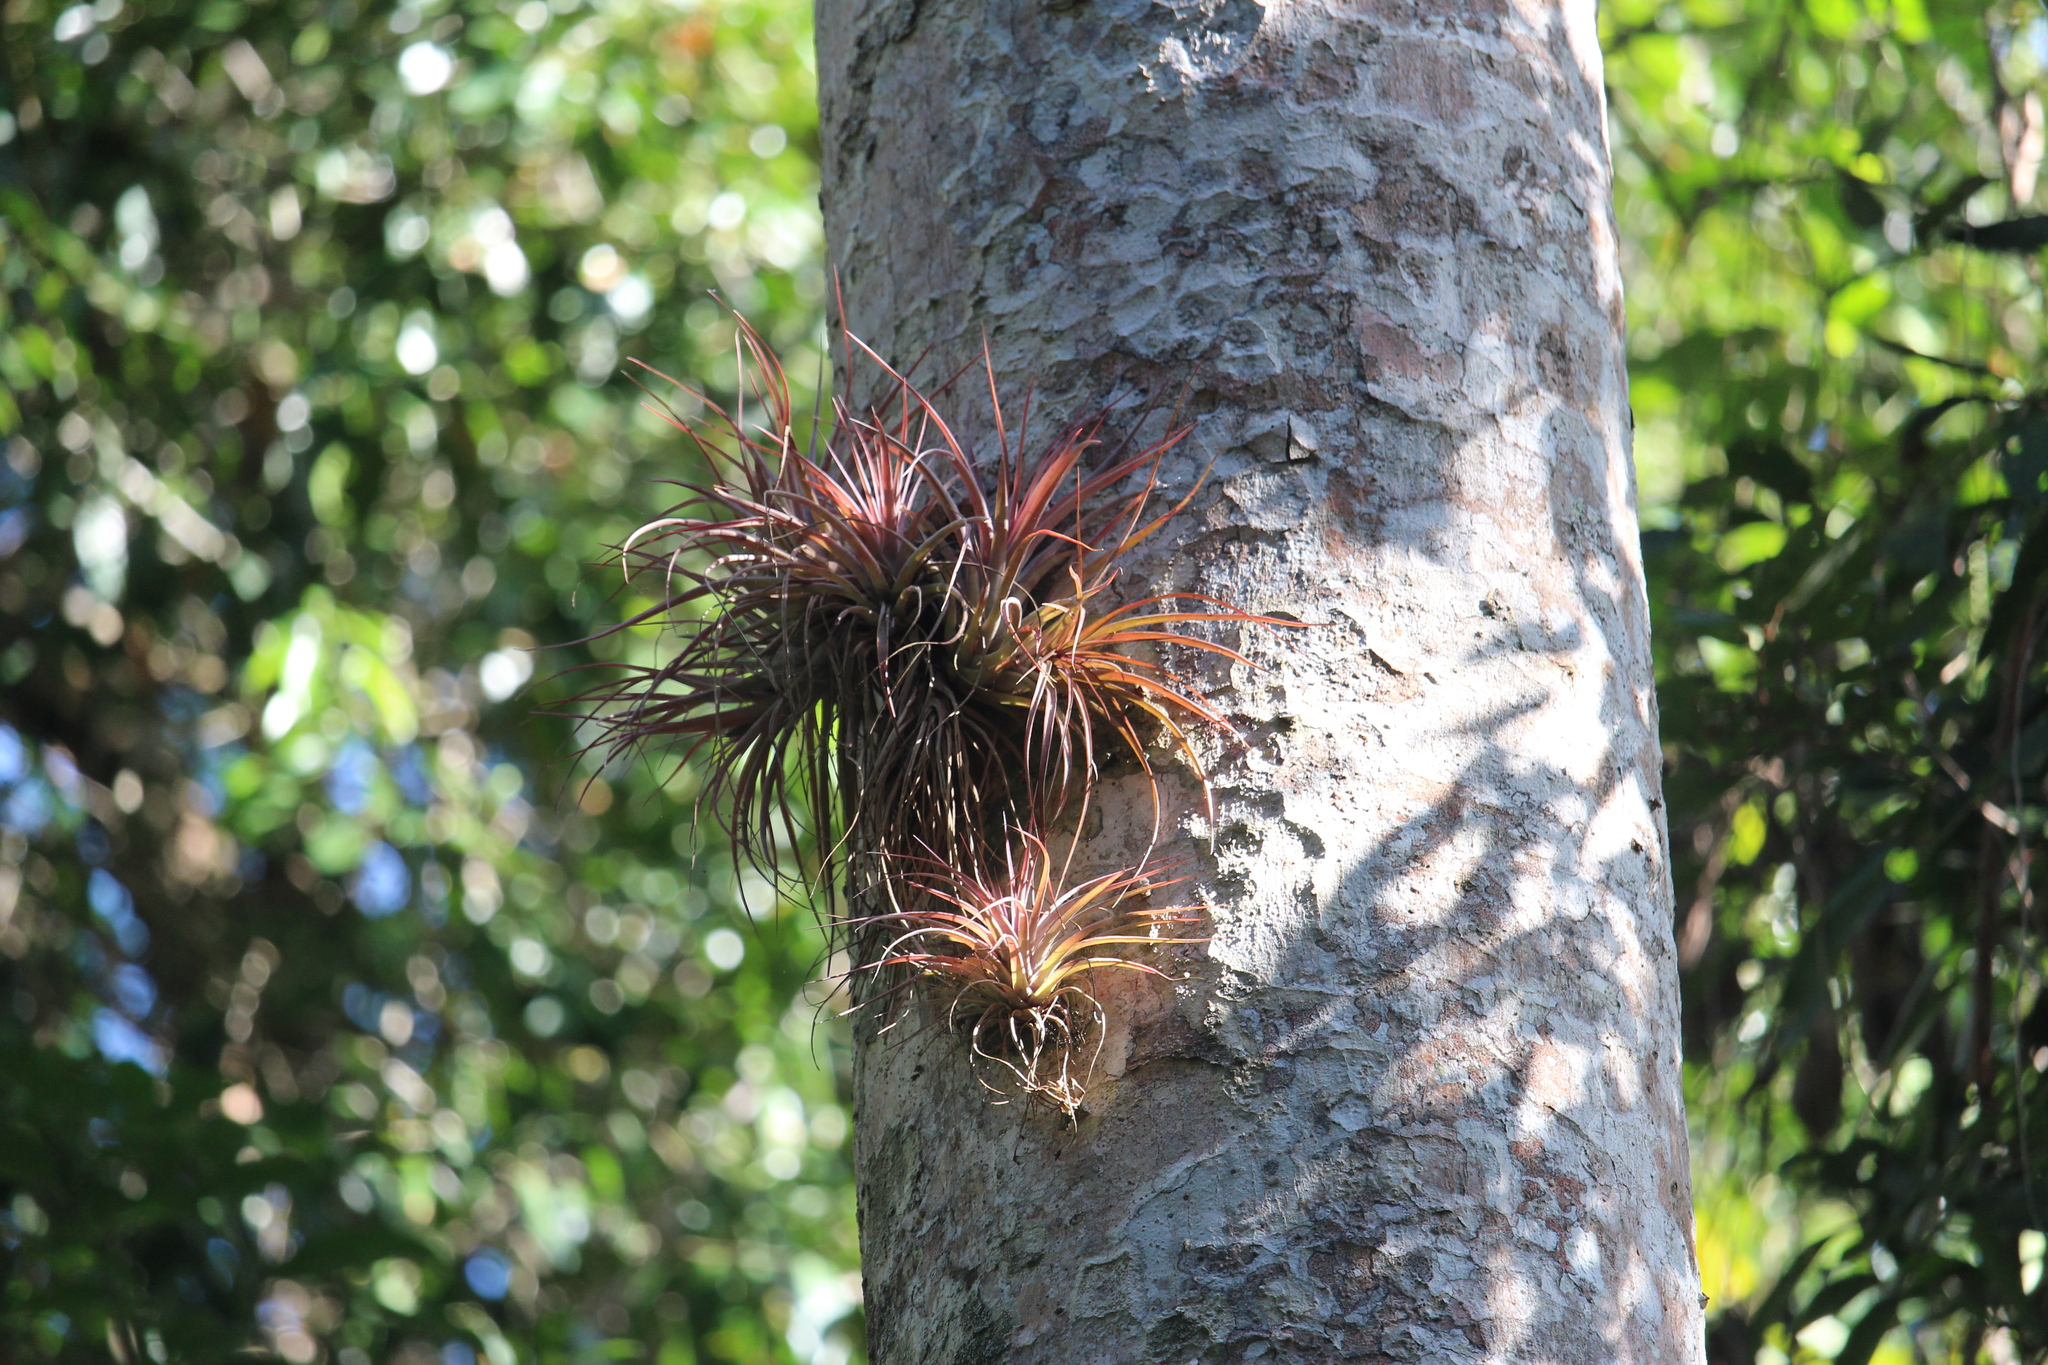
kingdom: Plantae
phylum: Tracheophyta
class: Liliopsida
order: Poales
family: Bromeliaceae
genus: Tillandsia
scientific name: Tillandsia brachycaulos
